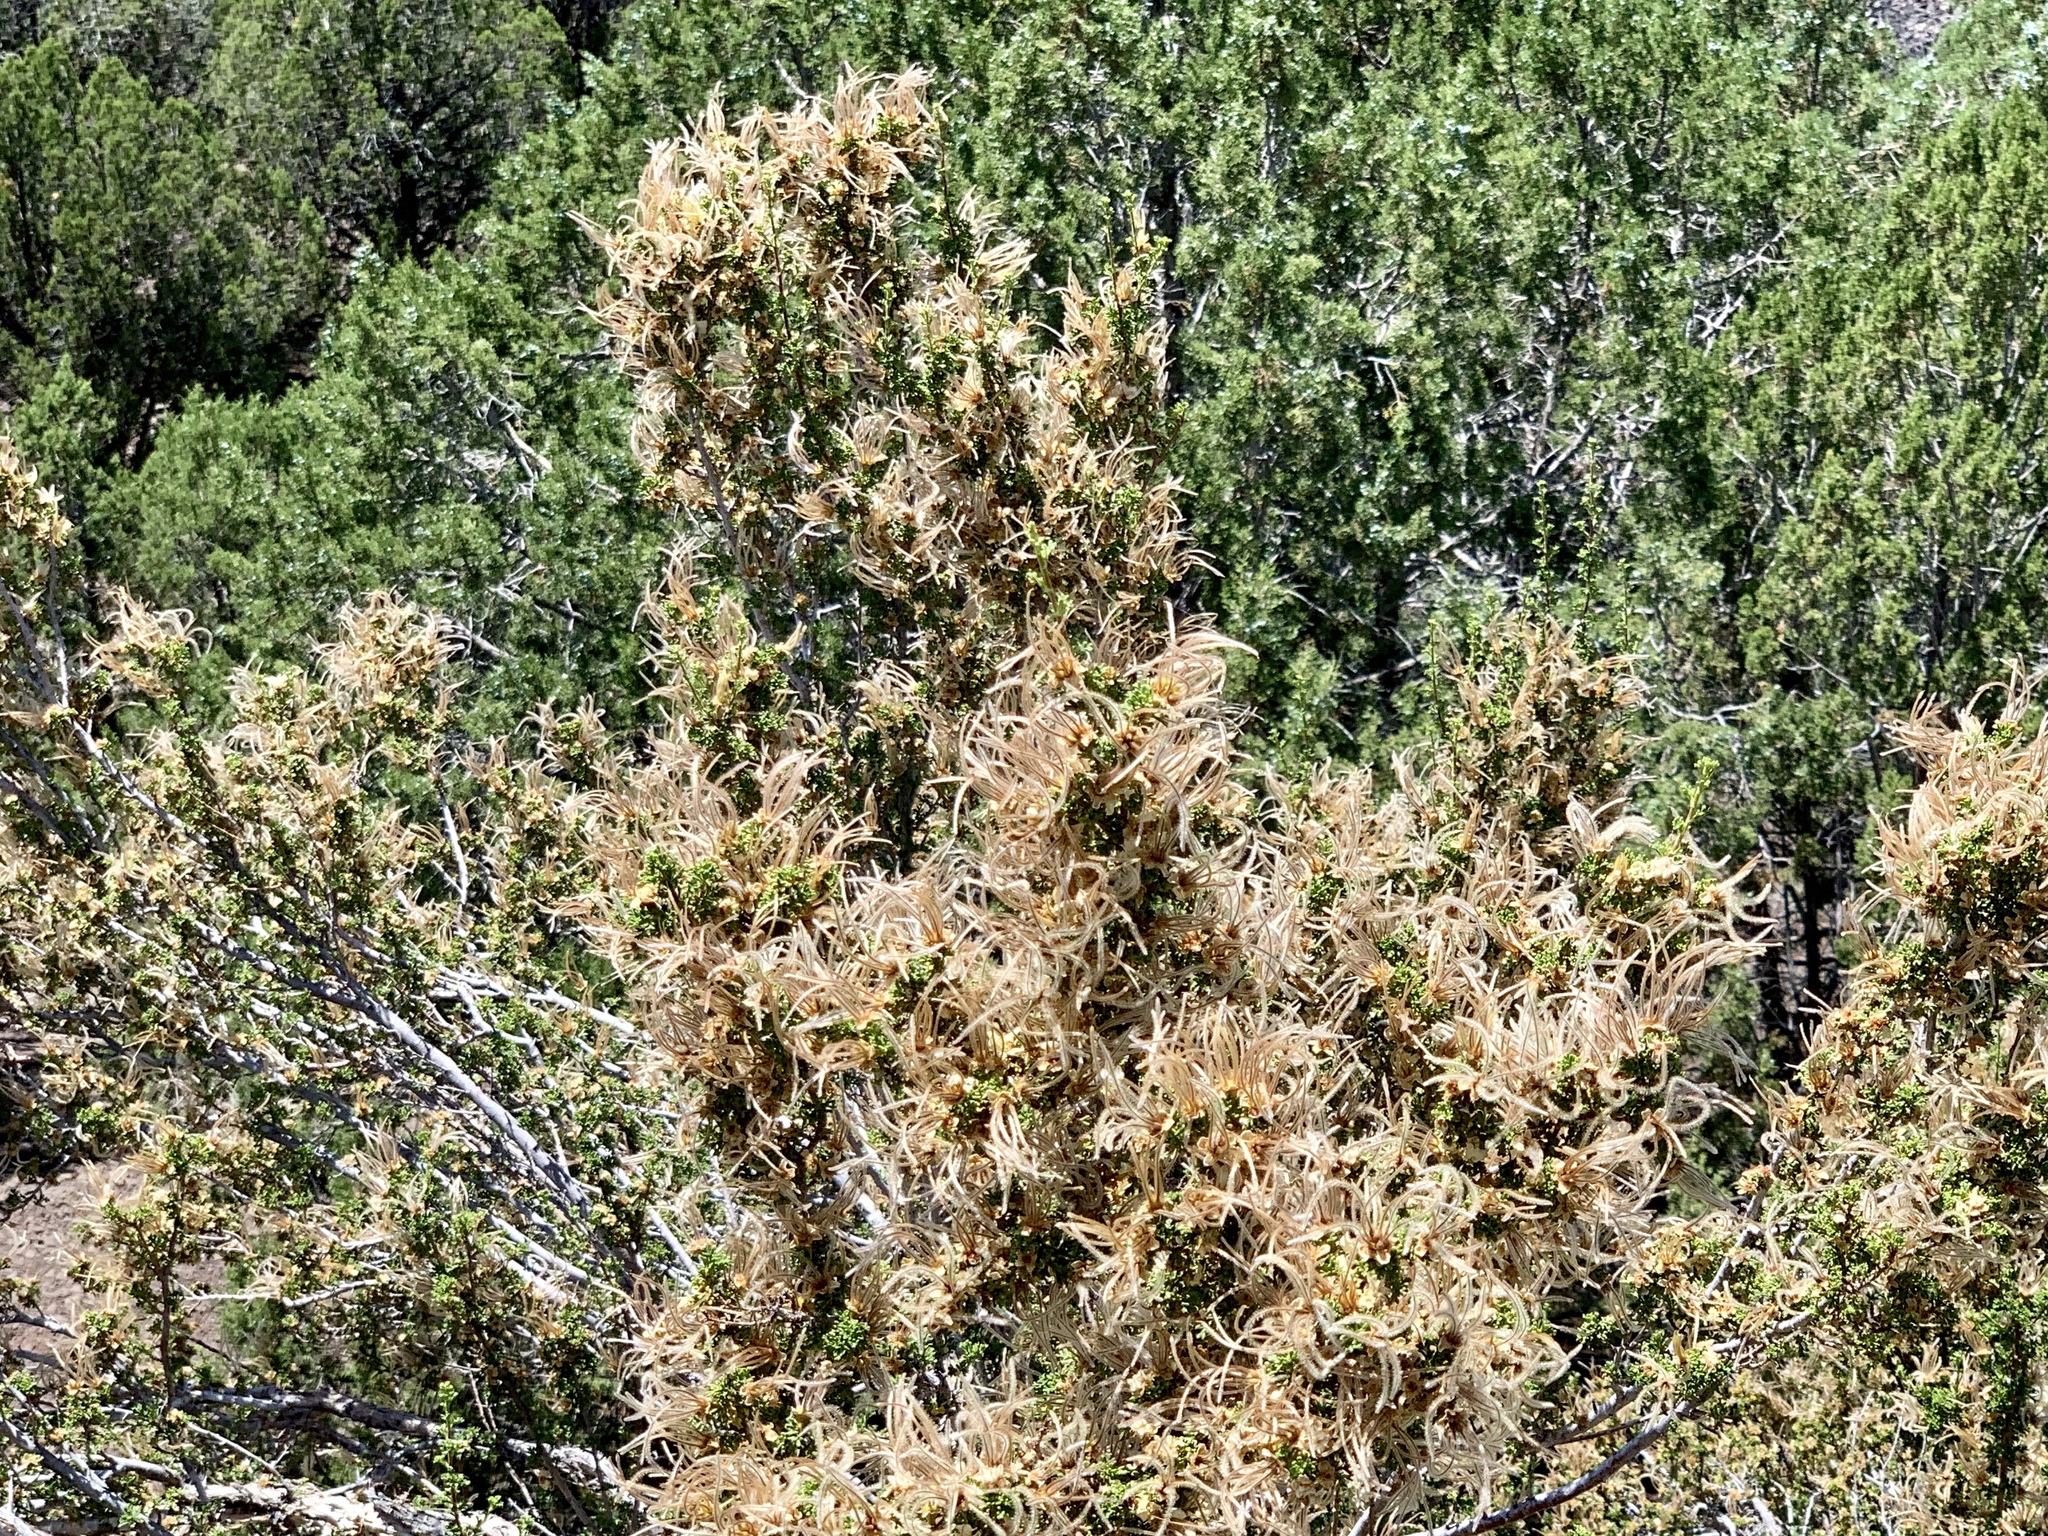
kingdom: Plantae
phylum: Tracheophyta
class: Magnoliopsida
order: Rosales
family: Rosaceae
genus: Purshia
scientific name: Purshia stansburiana
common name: Stansbury's cliffrose
